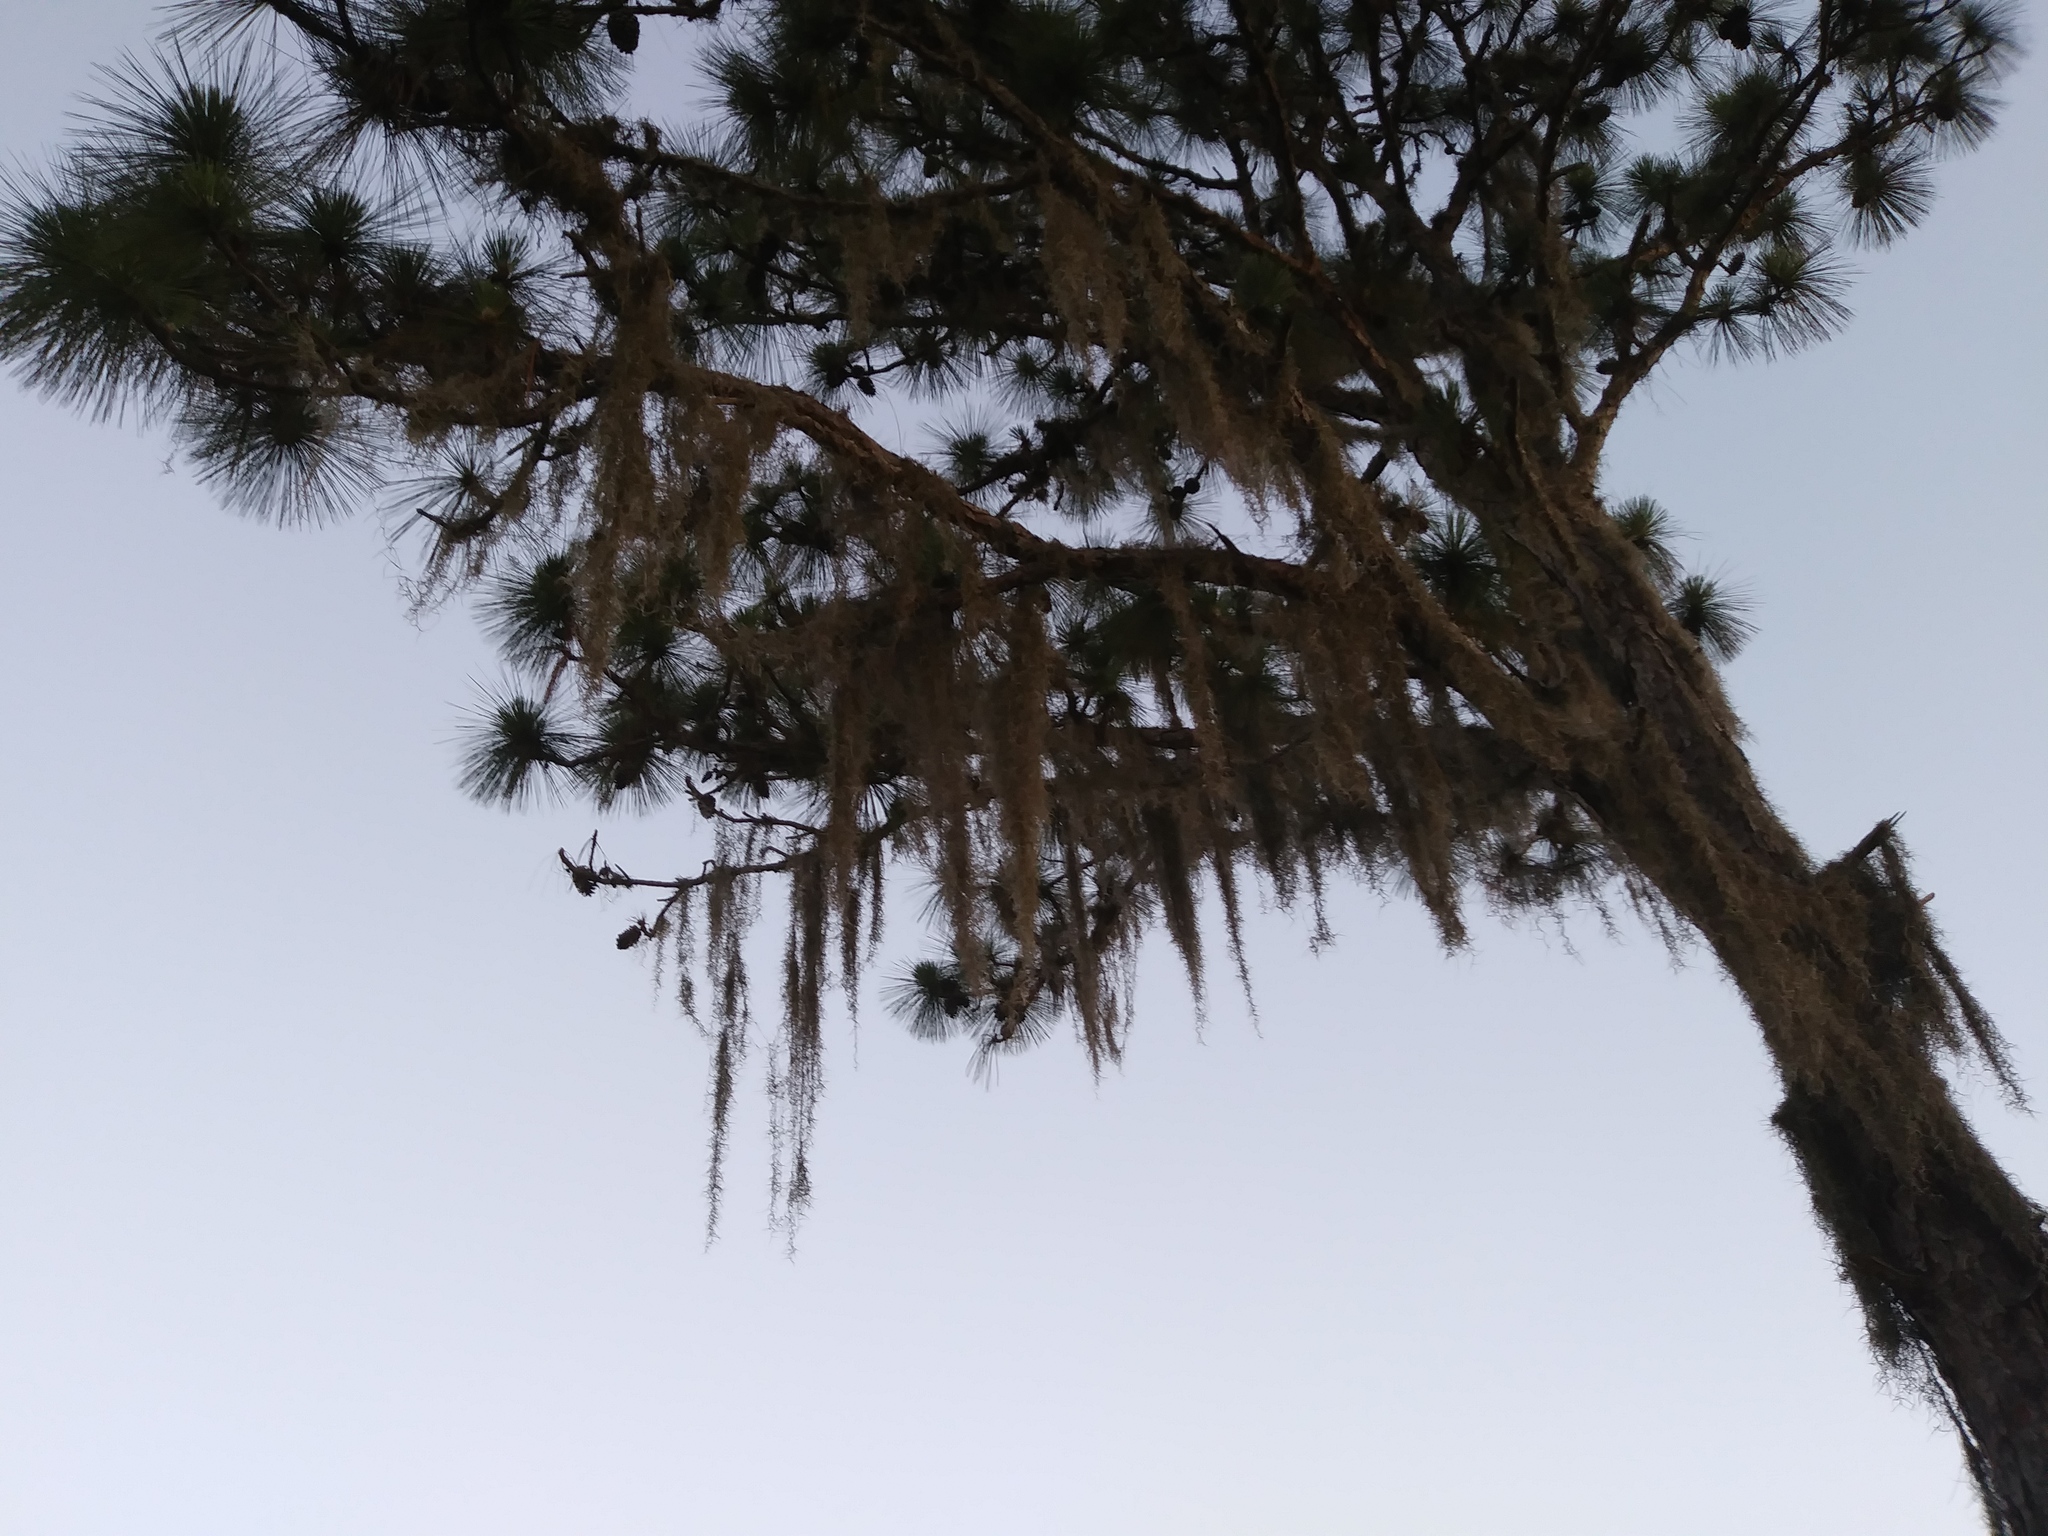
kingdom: Plantae
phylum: Tracheophyta
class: Liliopsida
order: Poales
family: Bromeliaceae
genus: Tillandsia
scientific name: Tillandsia usneoides
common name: Spanish moss
